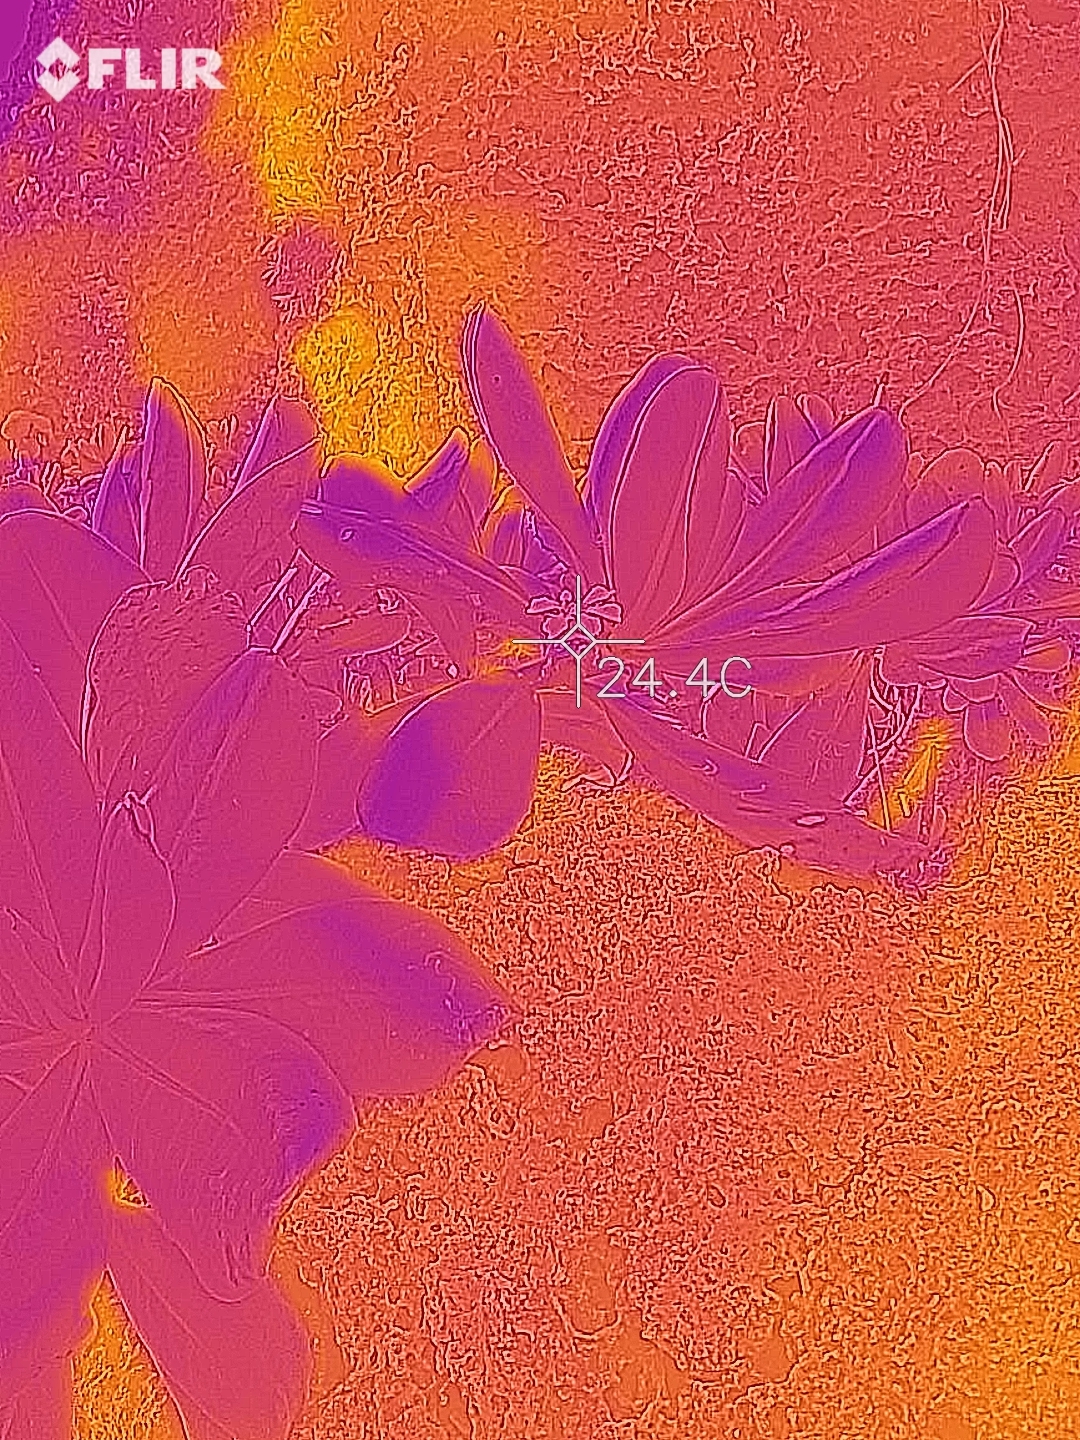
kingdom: Plantae
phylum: Tracheophyta
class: Magnoliopsida
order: Asterales
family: Goodeniaceae
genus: Scaevola
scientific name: Scaevola taccada
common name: Sea lettucetree
